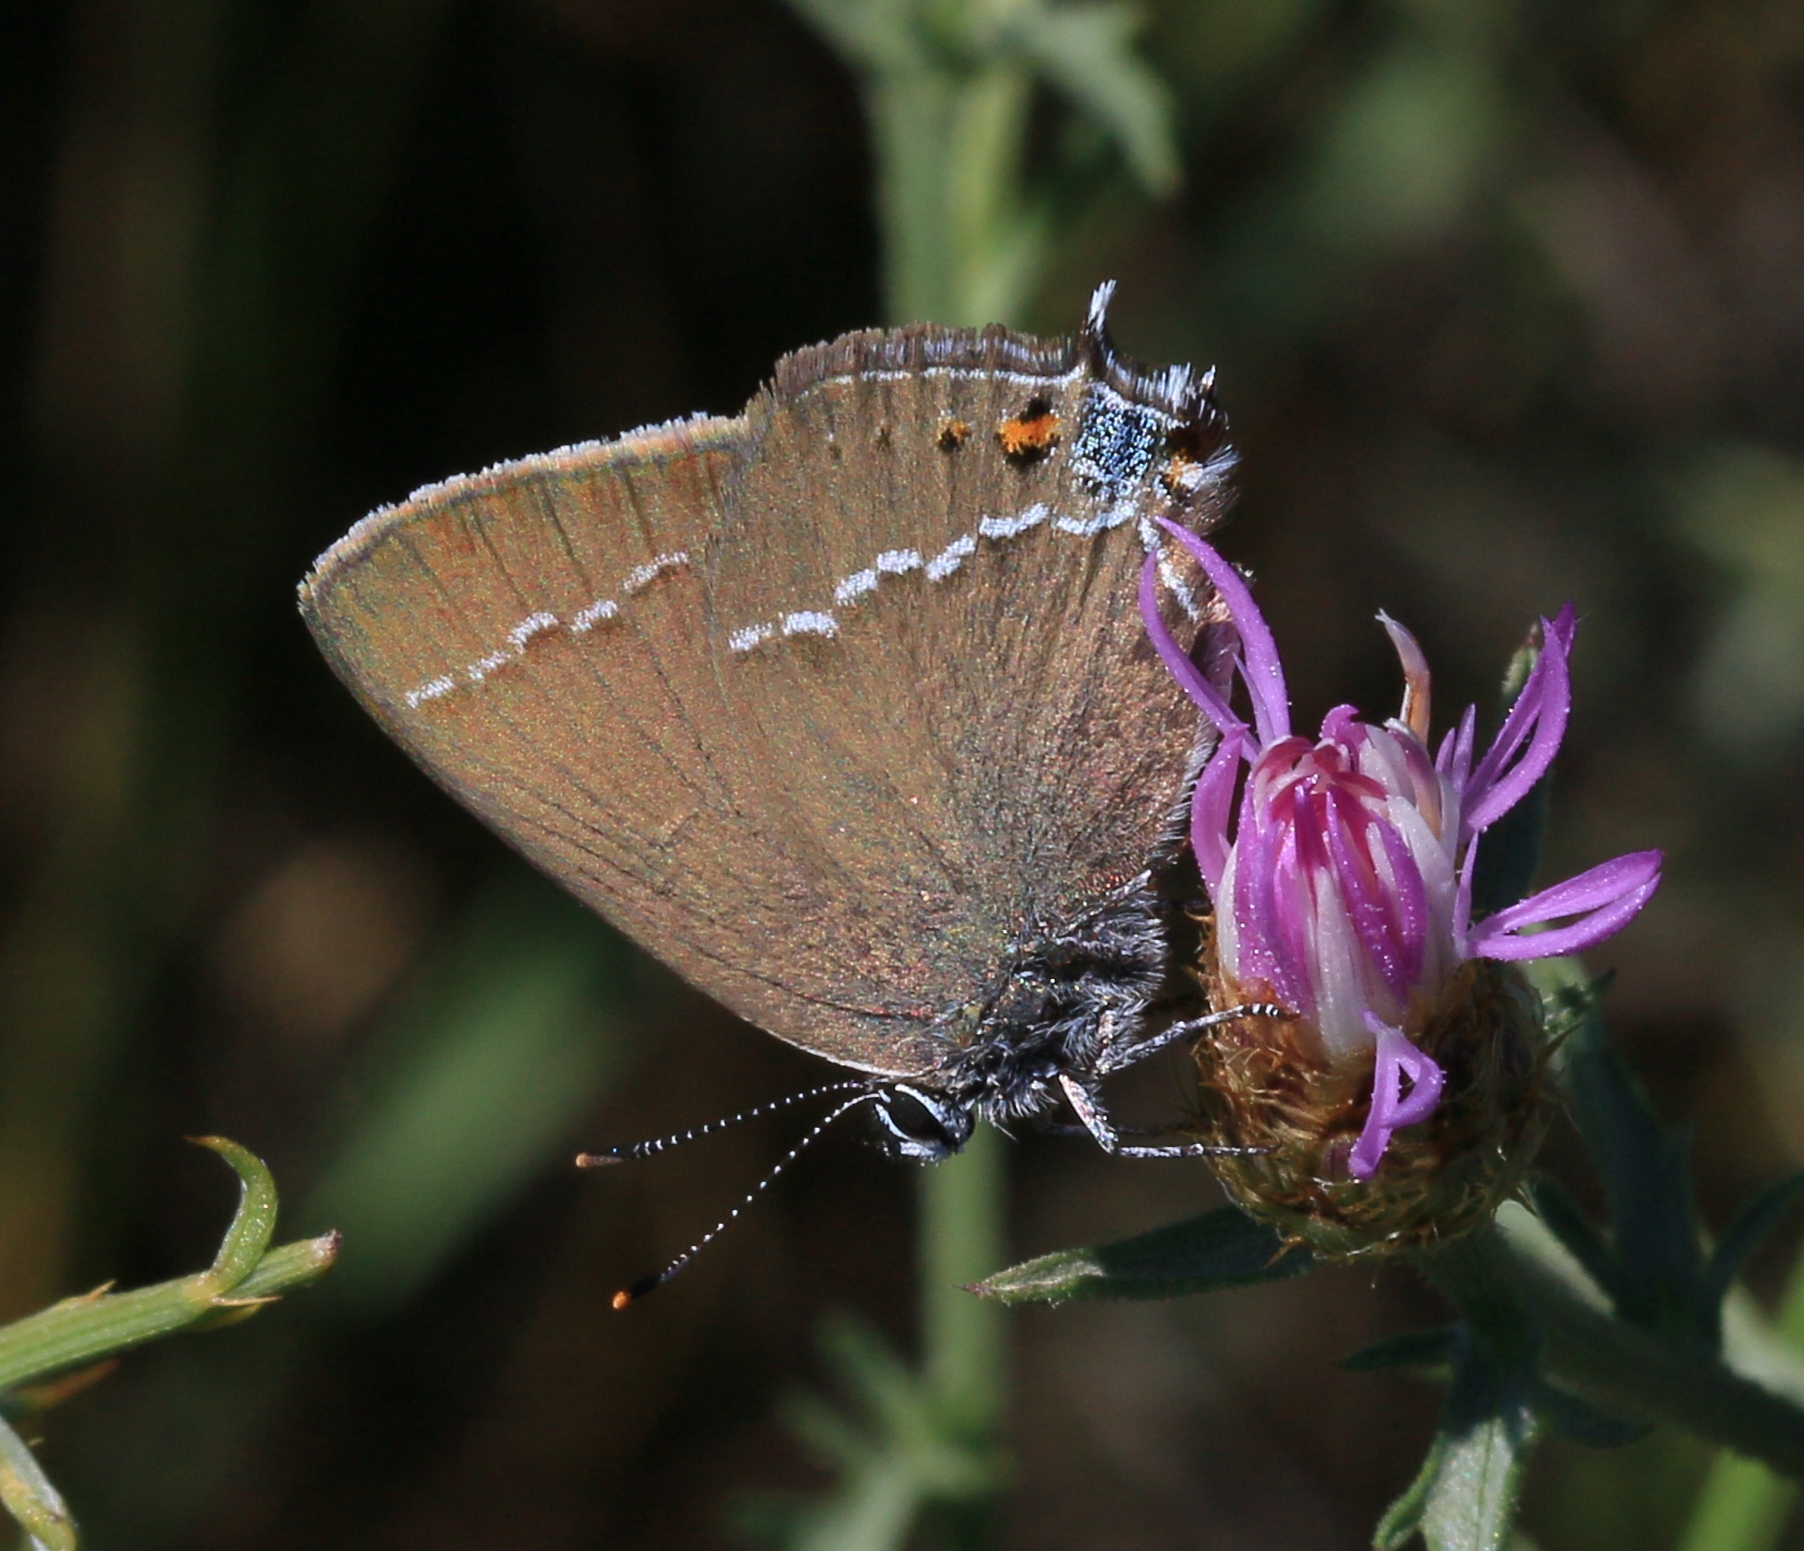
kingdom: Animalia
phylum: Arthropoda
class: Insecta
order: Lepidoptera
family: Lycaenidae
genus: Tuttiola
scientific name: Tuttiola spini
